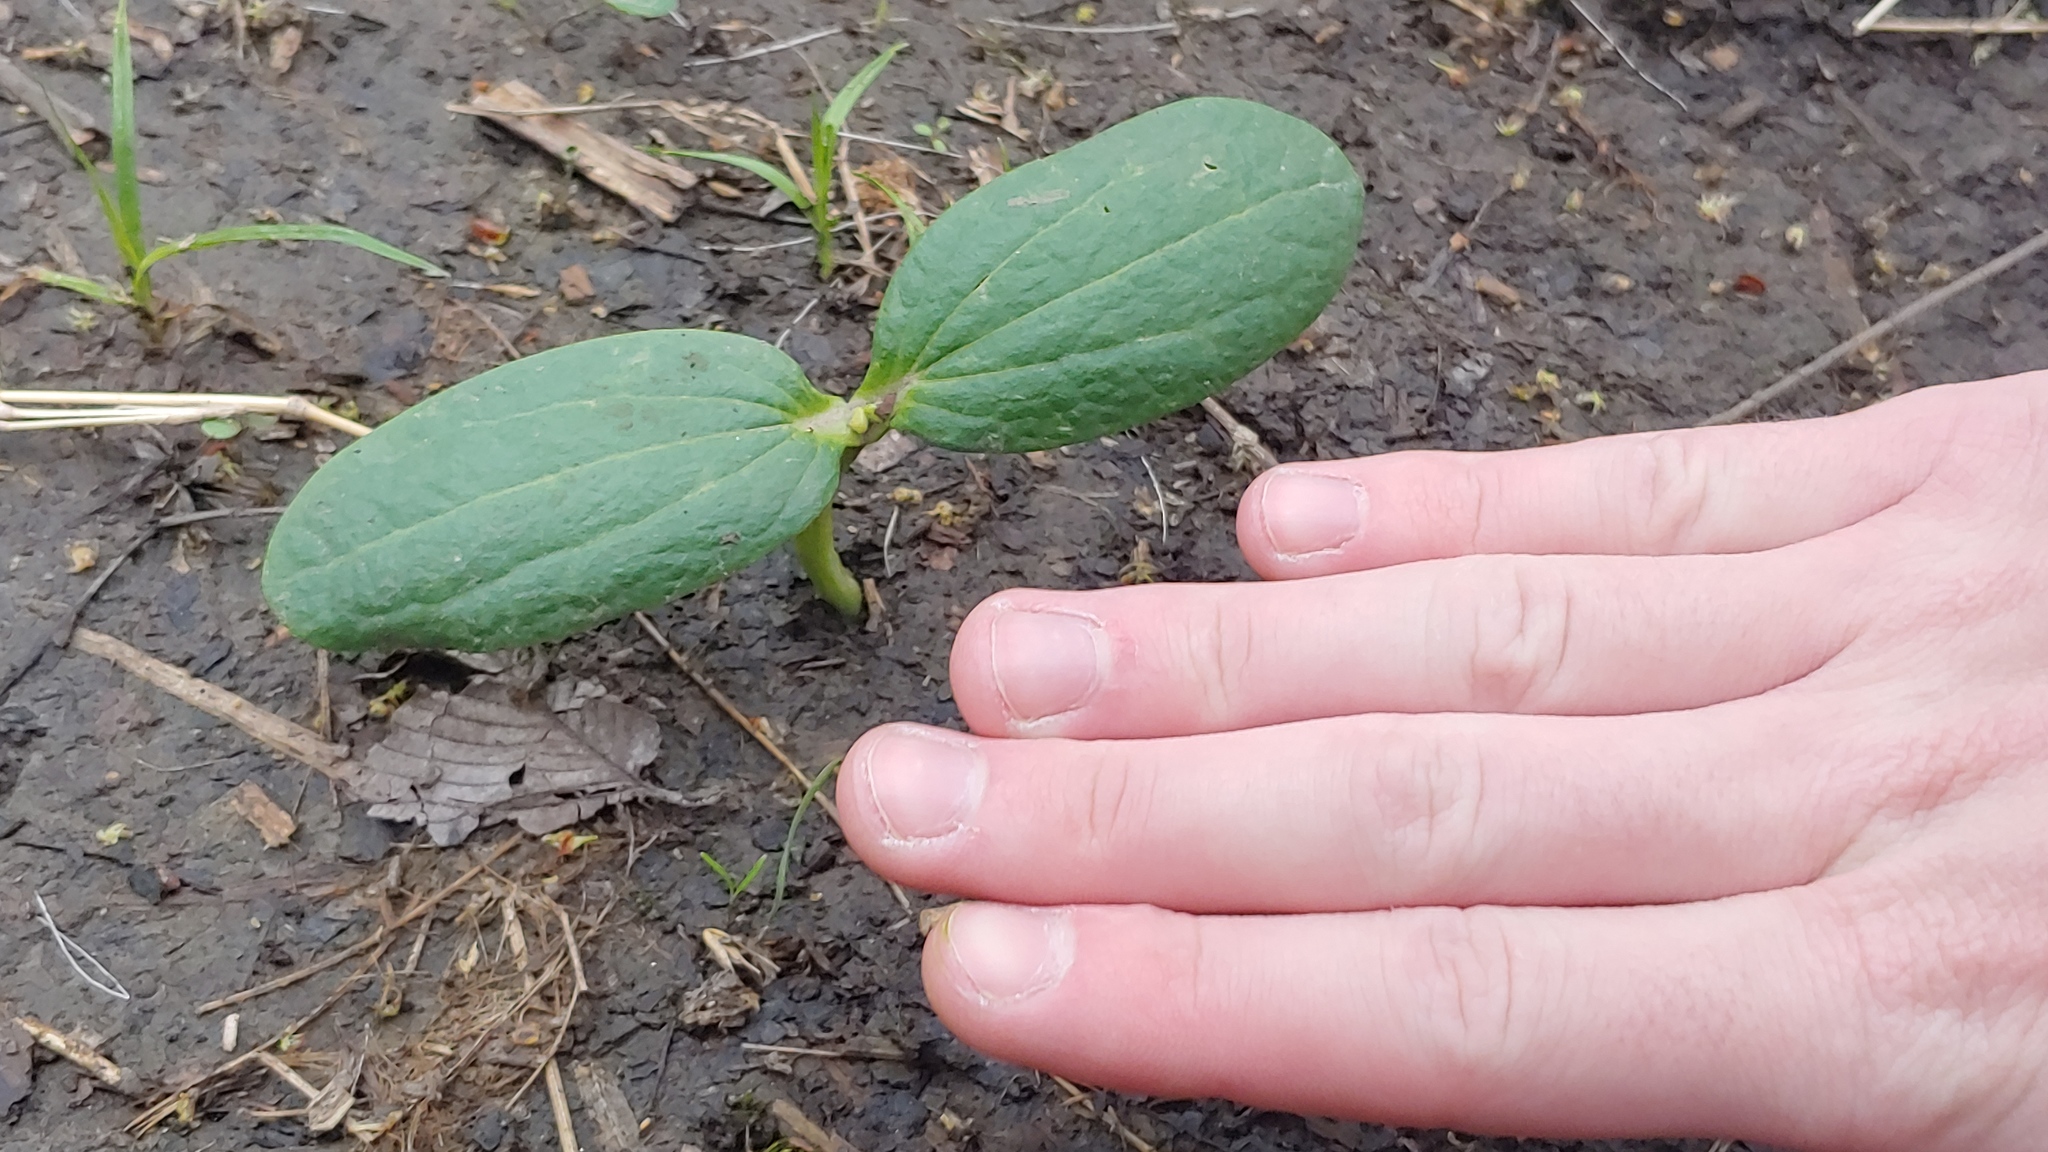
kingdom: Plantae
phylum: Tracheophyta
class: Magnoliopsida
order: Cucurbitales
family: Cucurbitaceae
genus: Echinocystis
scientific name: Echinocystis lobata
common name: Wild cucumber
